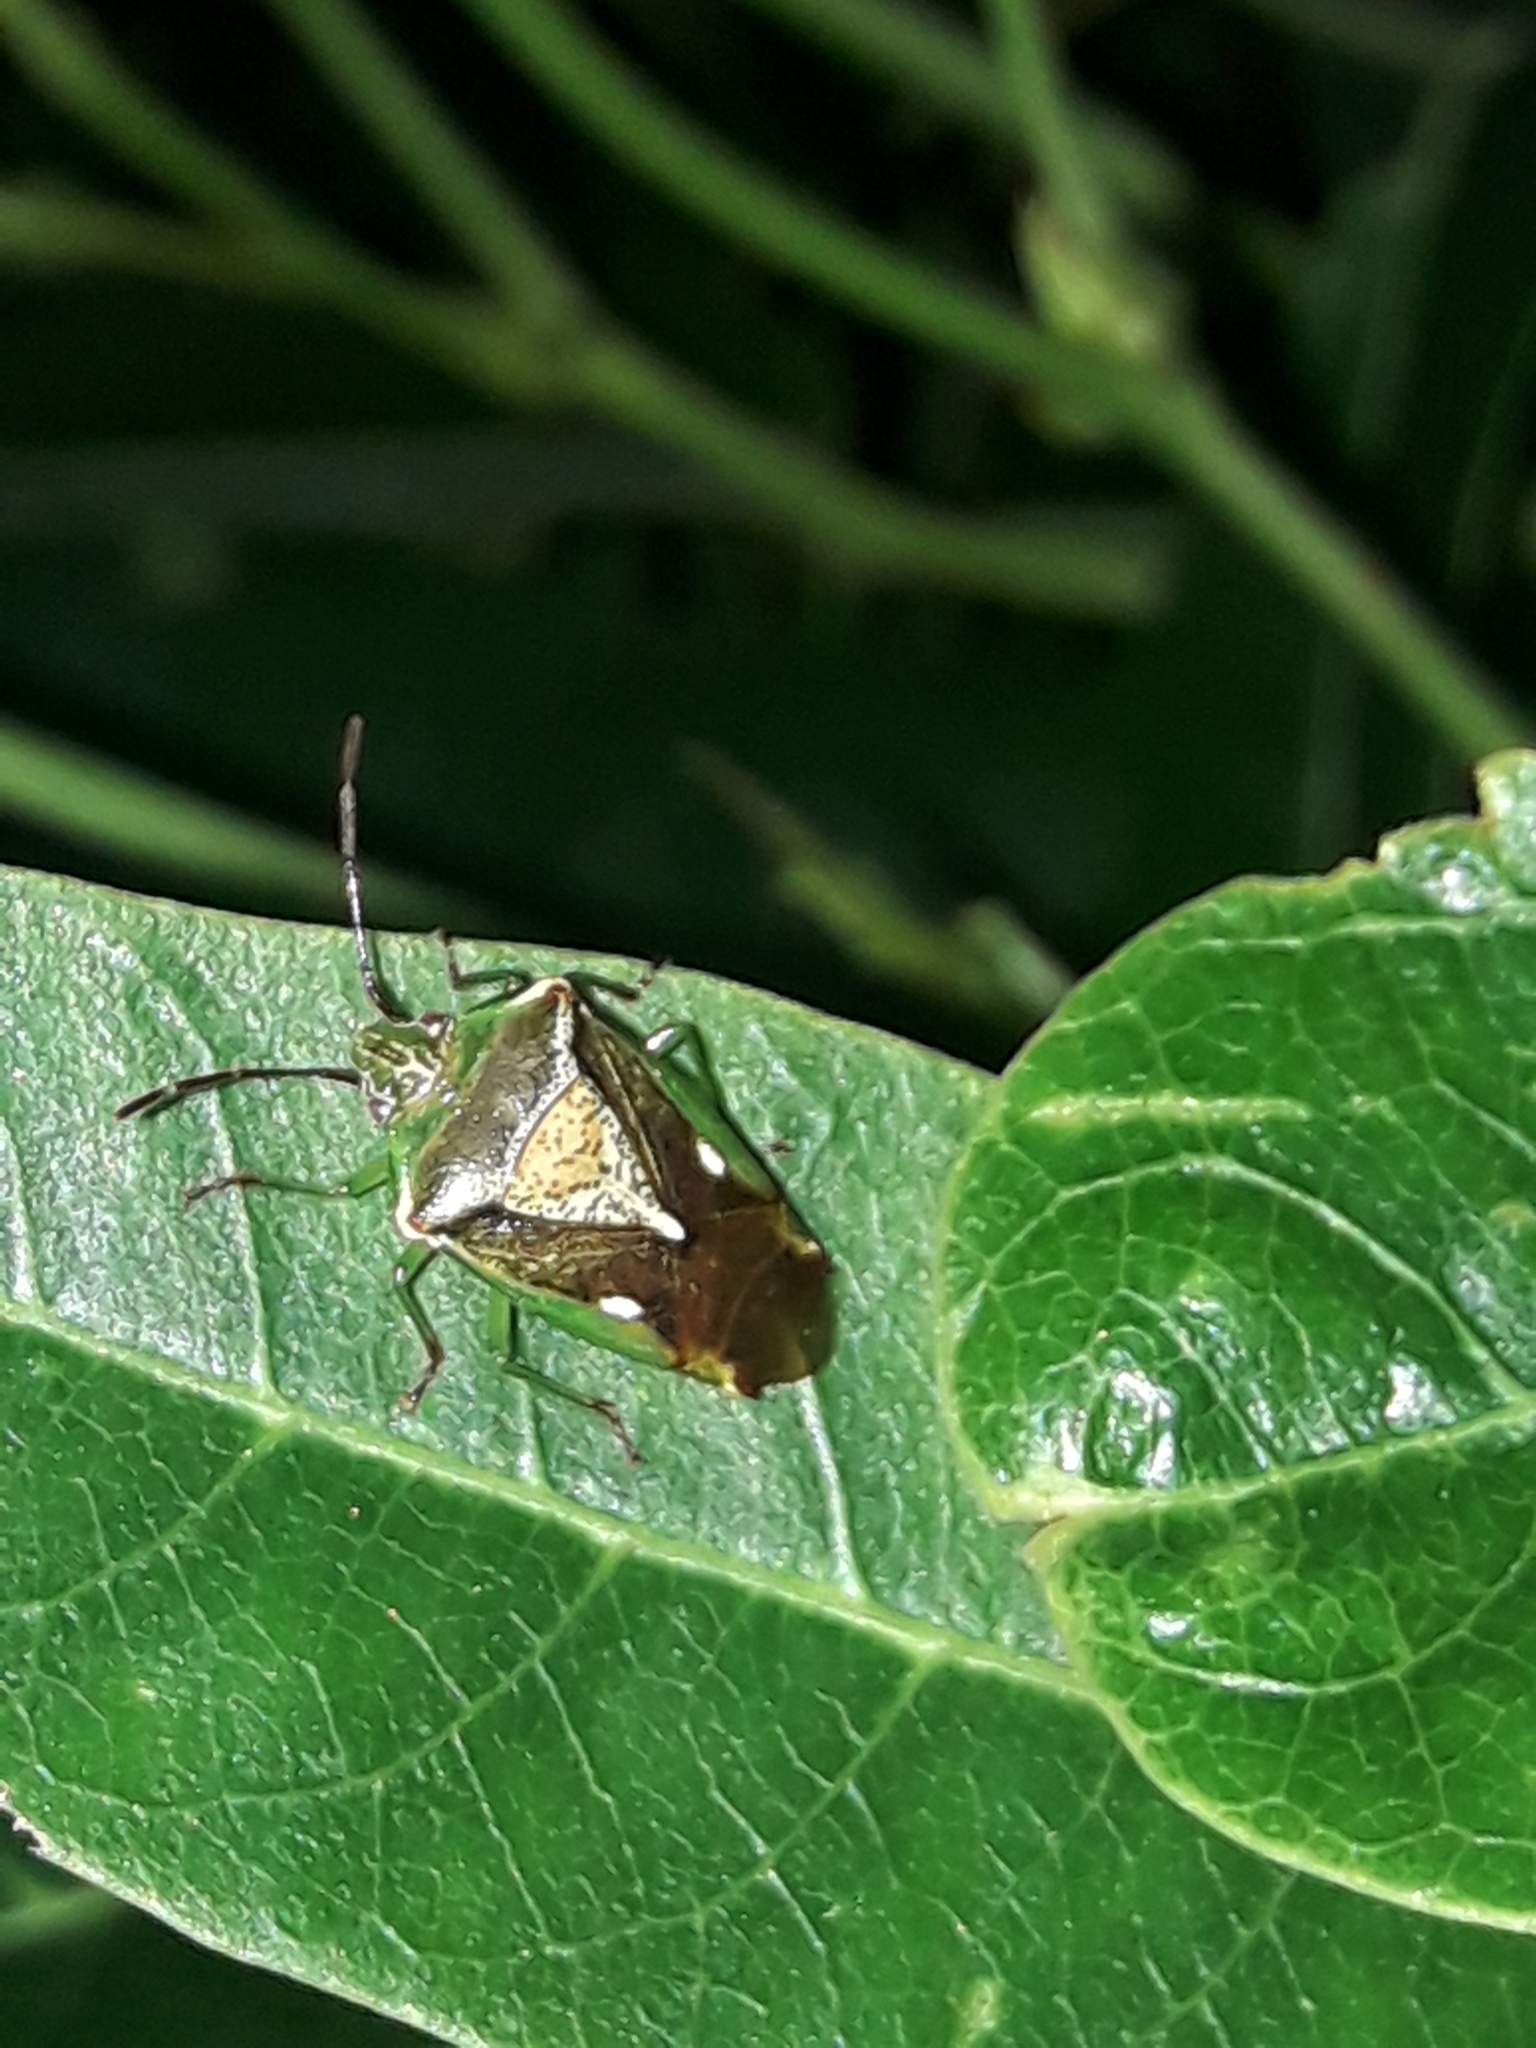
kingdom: Animalia
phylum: Arthropoda
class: Insecta
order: Hemiptera
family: Acanthosomatidae
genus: Oncacontias
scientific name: Oncacontias vittatus
